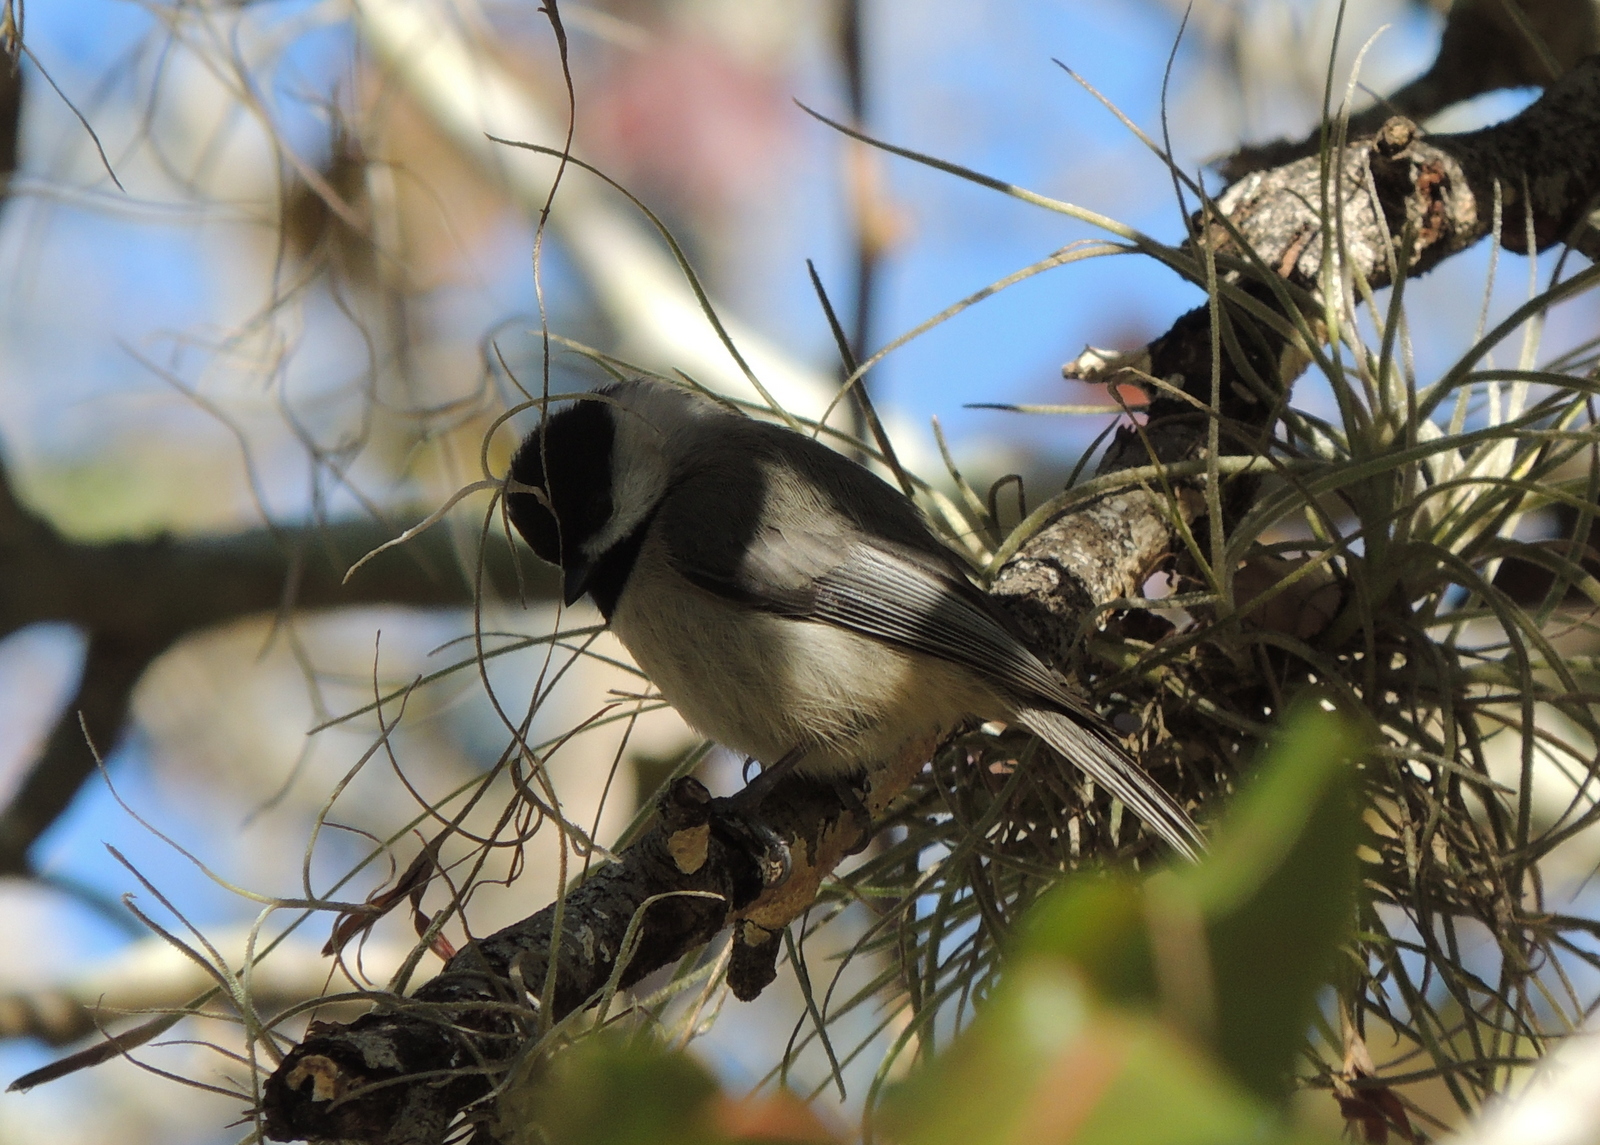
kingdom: Animalia
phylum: Chordata
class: Aves
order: Passeriformes
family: Paridae
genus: Poecile
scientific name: Poecile carolinensis
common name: Carolina chickadee
